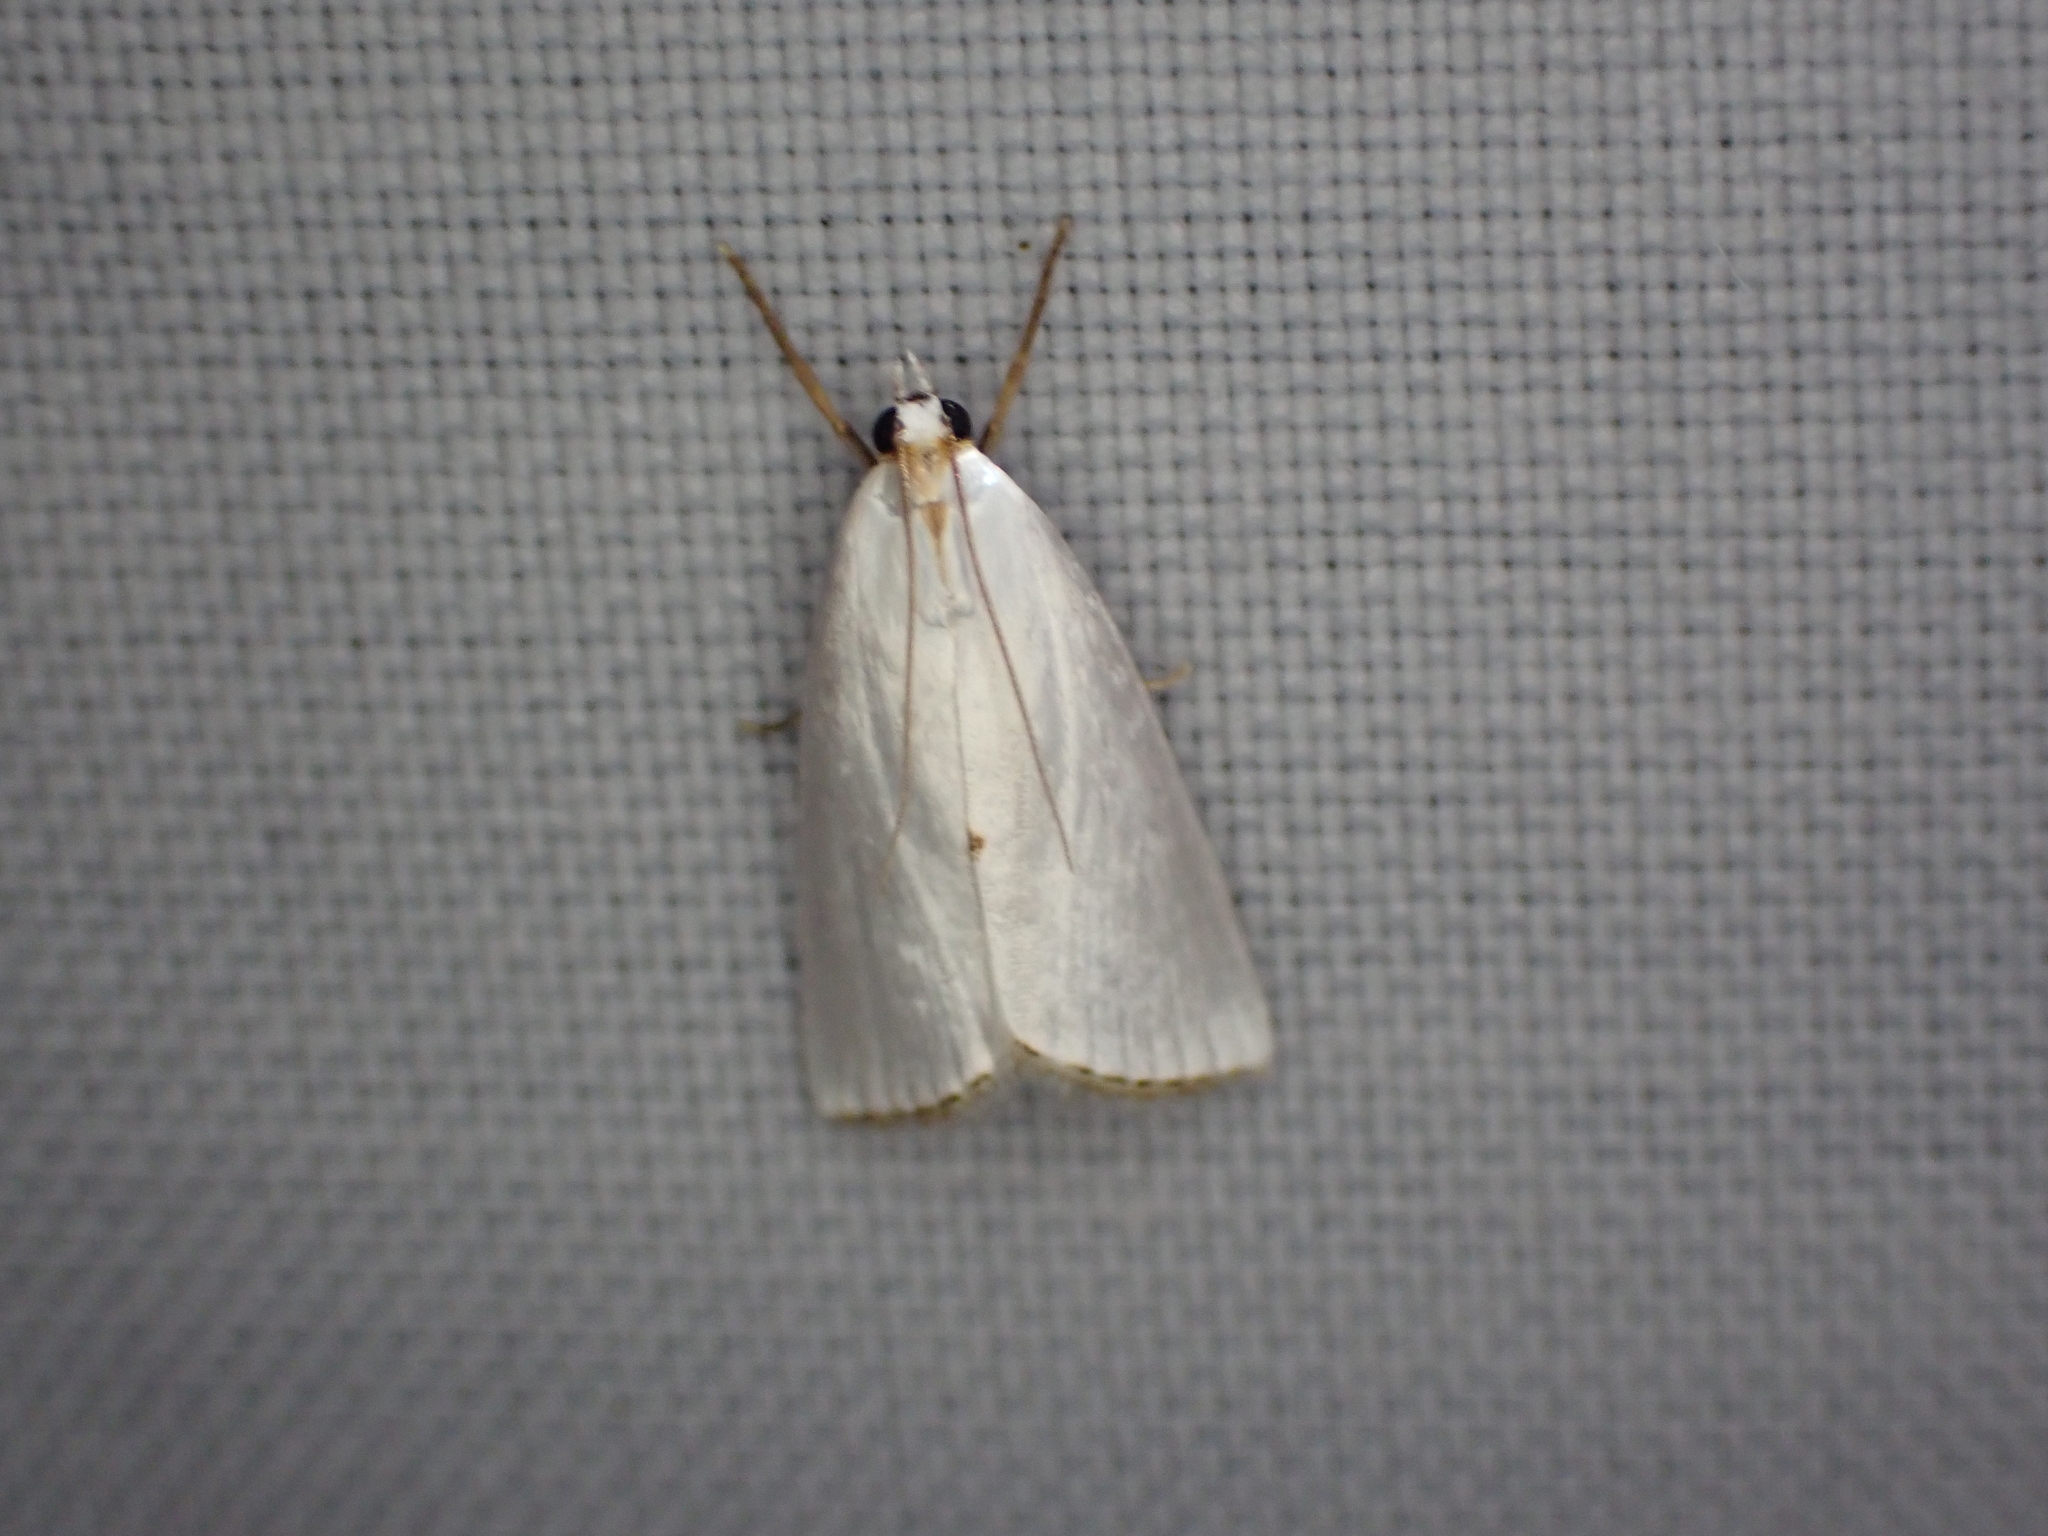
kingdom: Animalia
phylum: Arthropoda
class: Insecta
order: Lepidoptera
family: Crambidae
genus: Argyria
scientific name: Argyria nivalis
